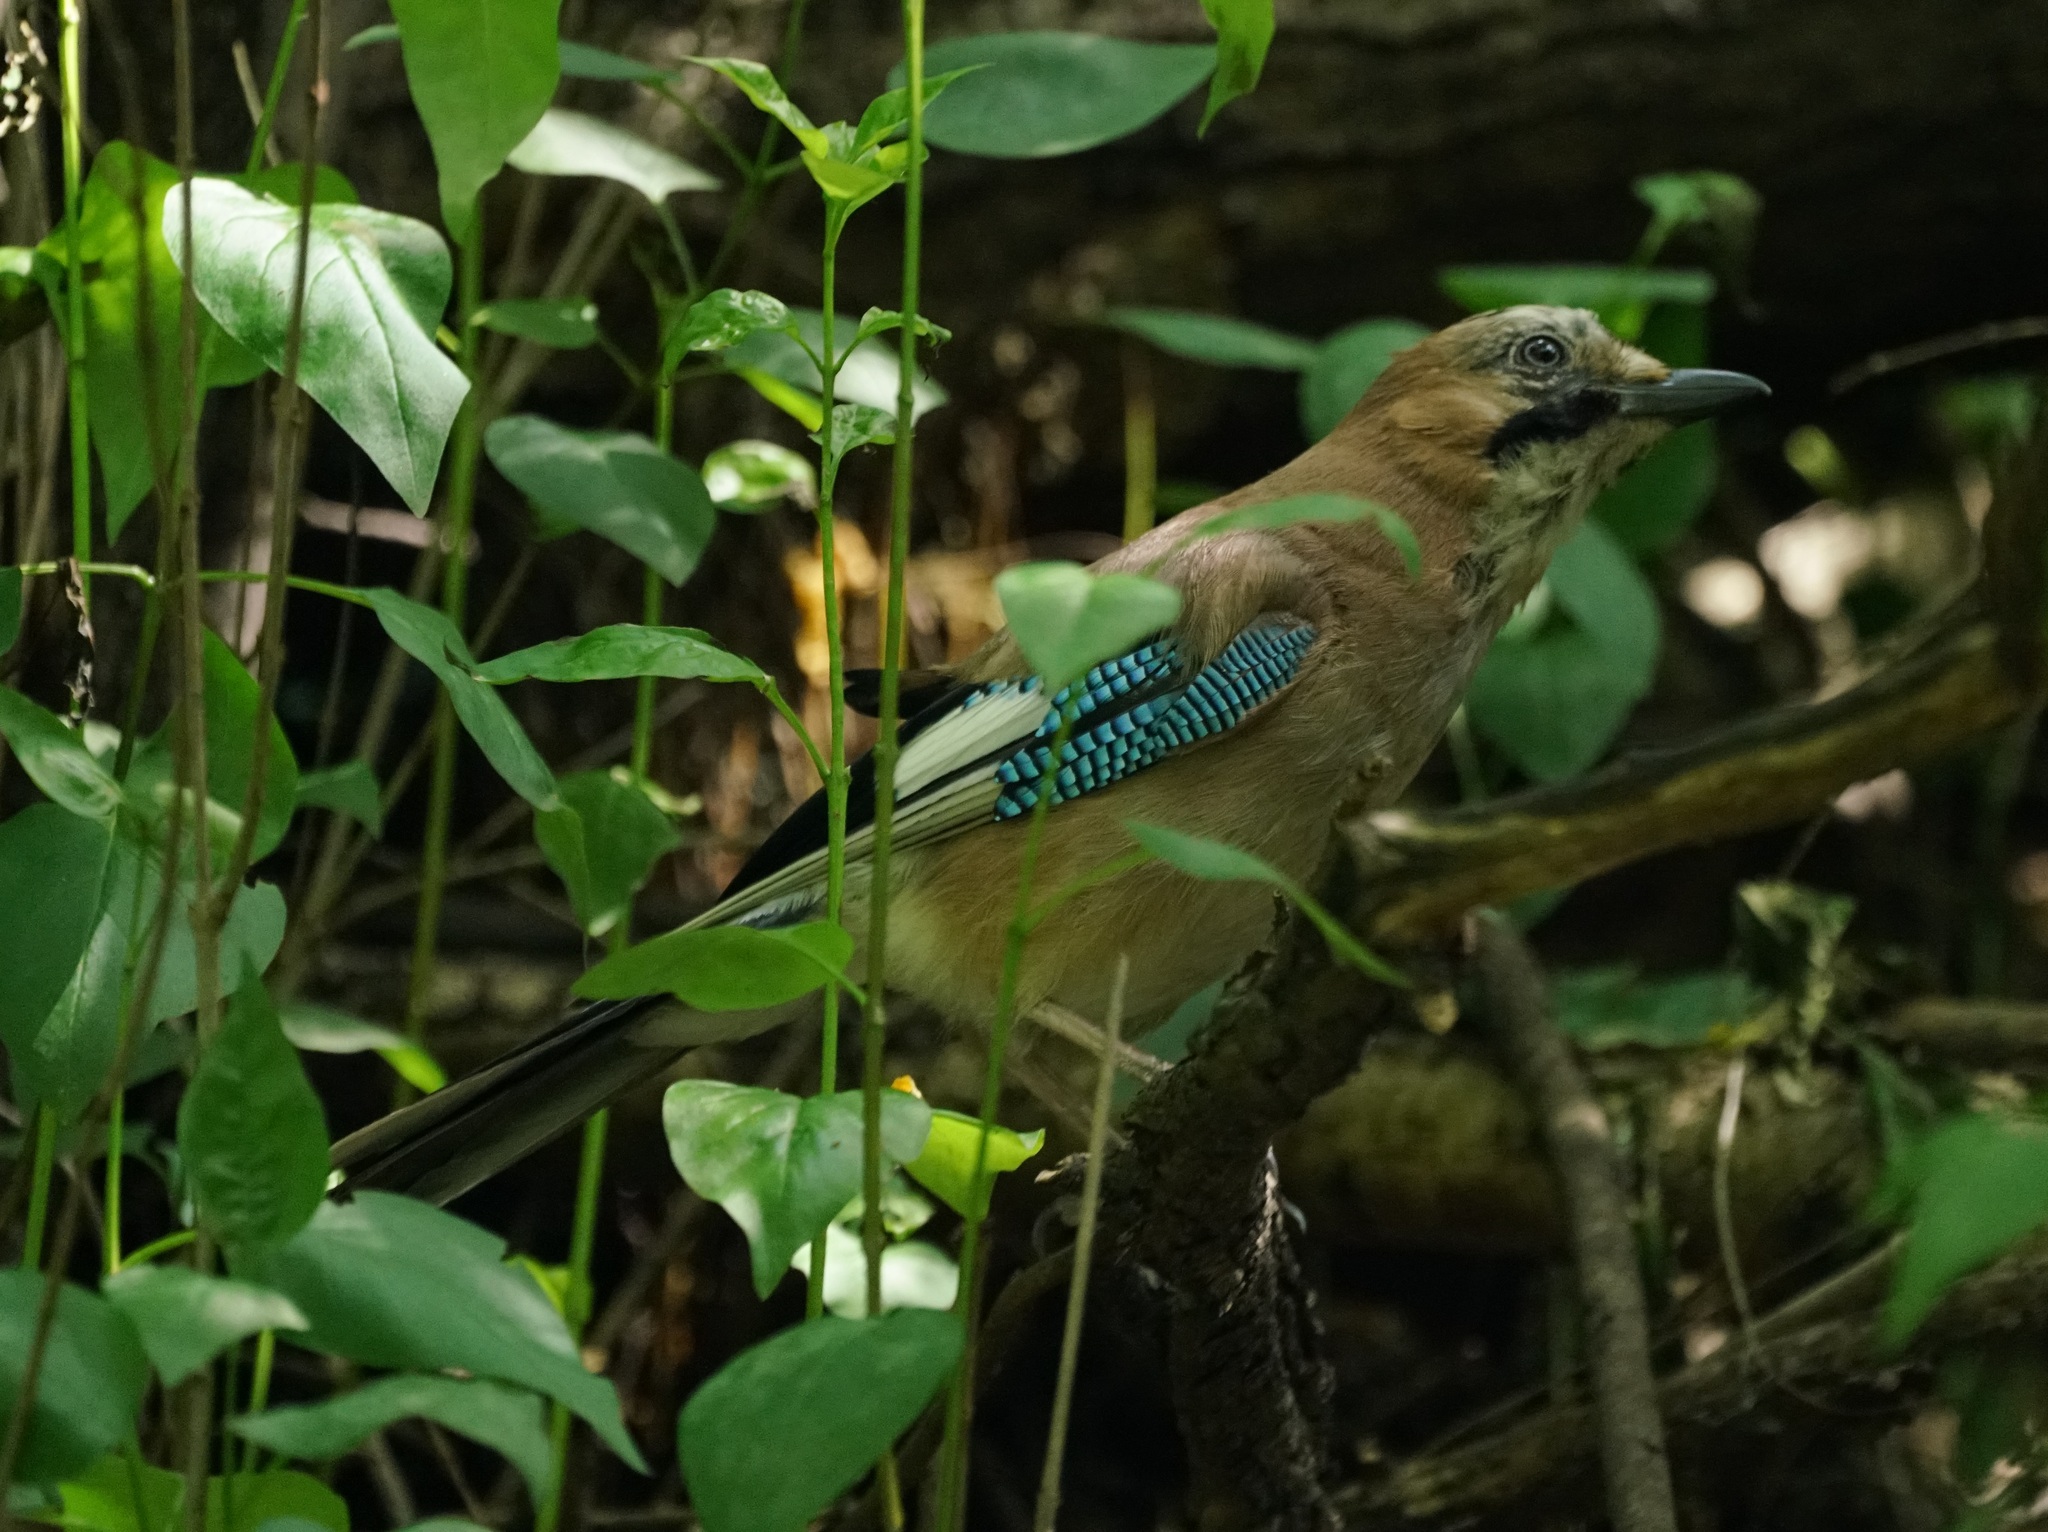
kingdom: Animalia
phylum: Chordata
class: Aves
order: Passeriformes
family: Corvidae
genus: Garrulus
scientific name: Garrulus glandarius
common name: Eurasian jay
